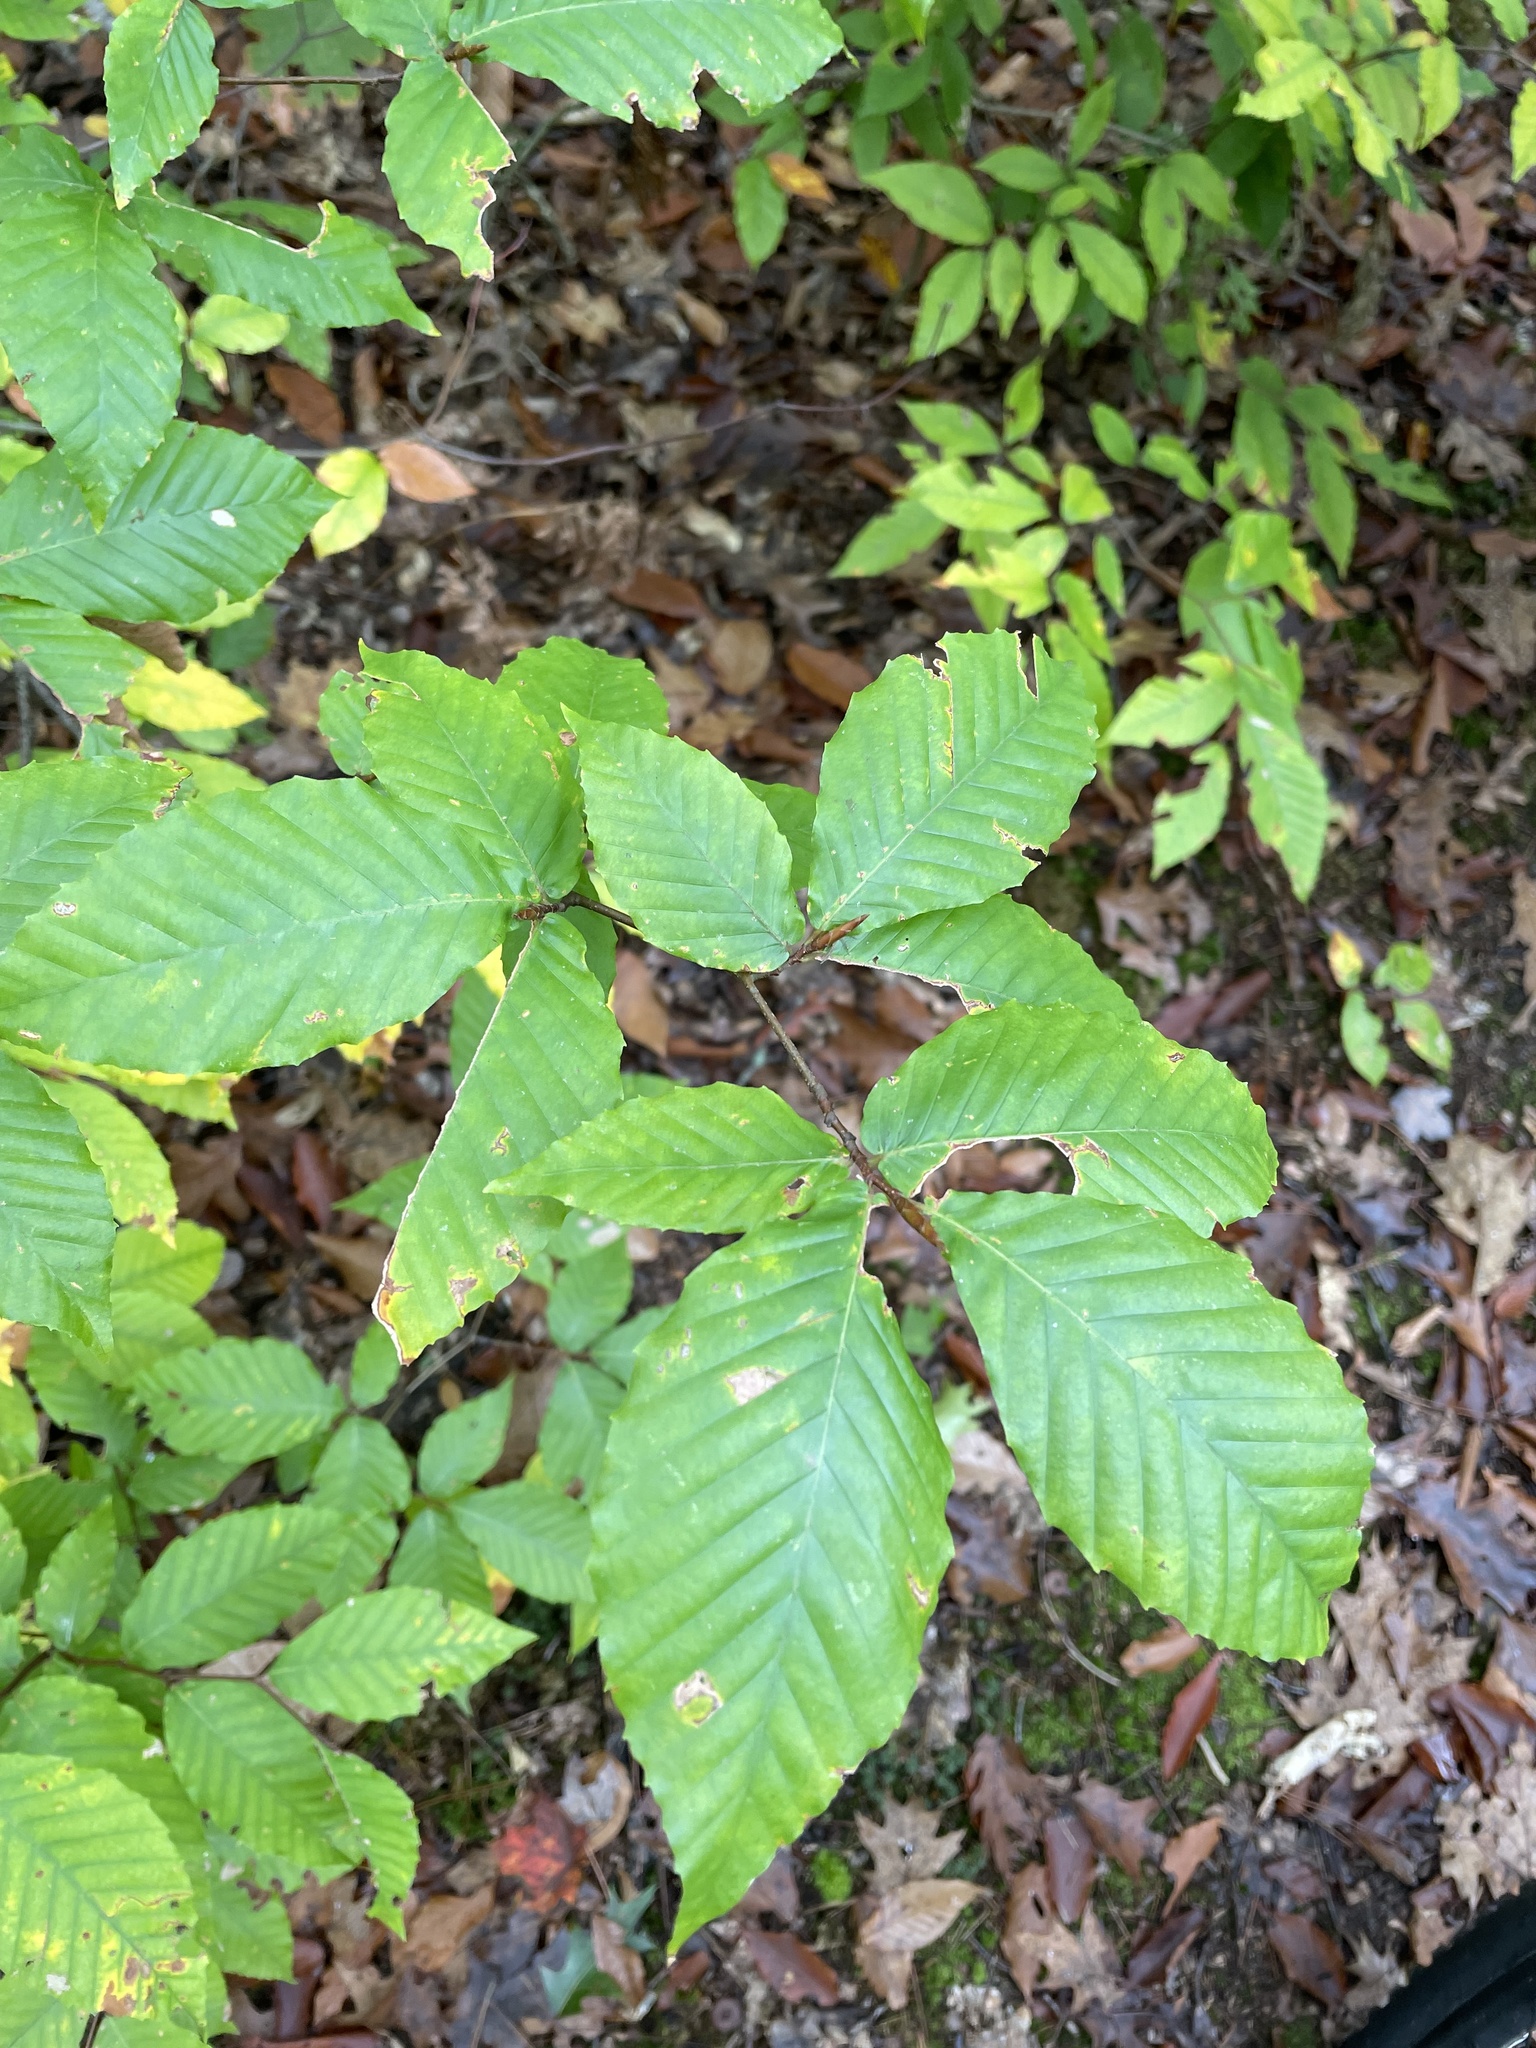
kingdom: Plantae
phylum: Tracheophyta
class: Magnoliopsida
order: Fagales
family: Fagaceae
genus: Fagus
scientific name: Fagus grandifolia
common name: American beech
